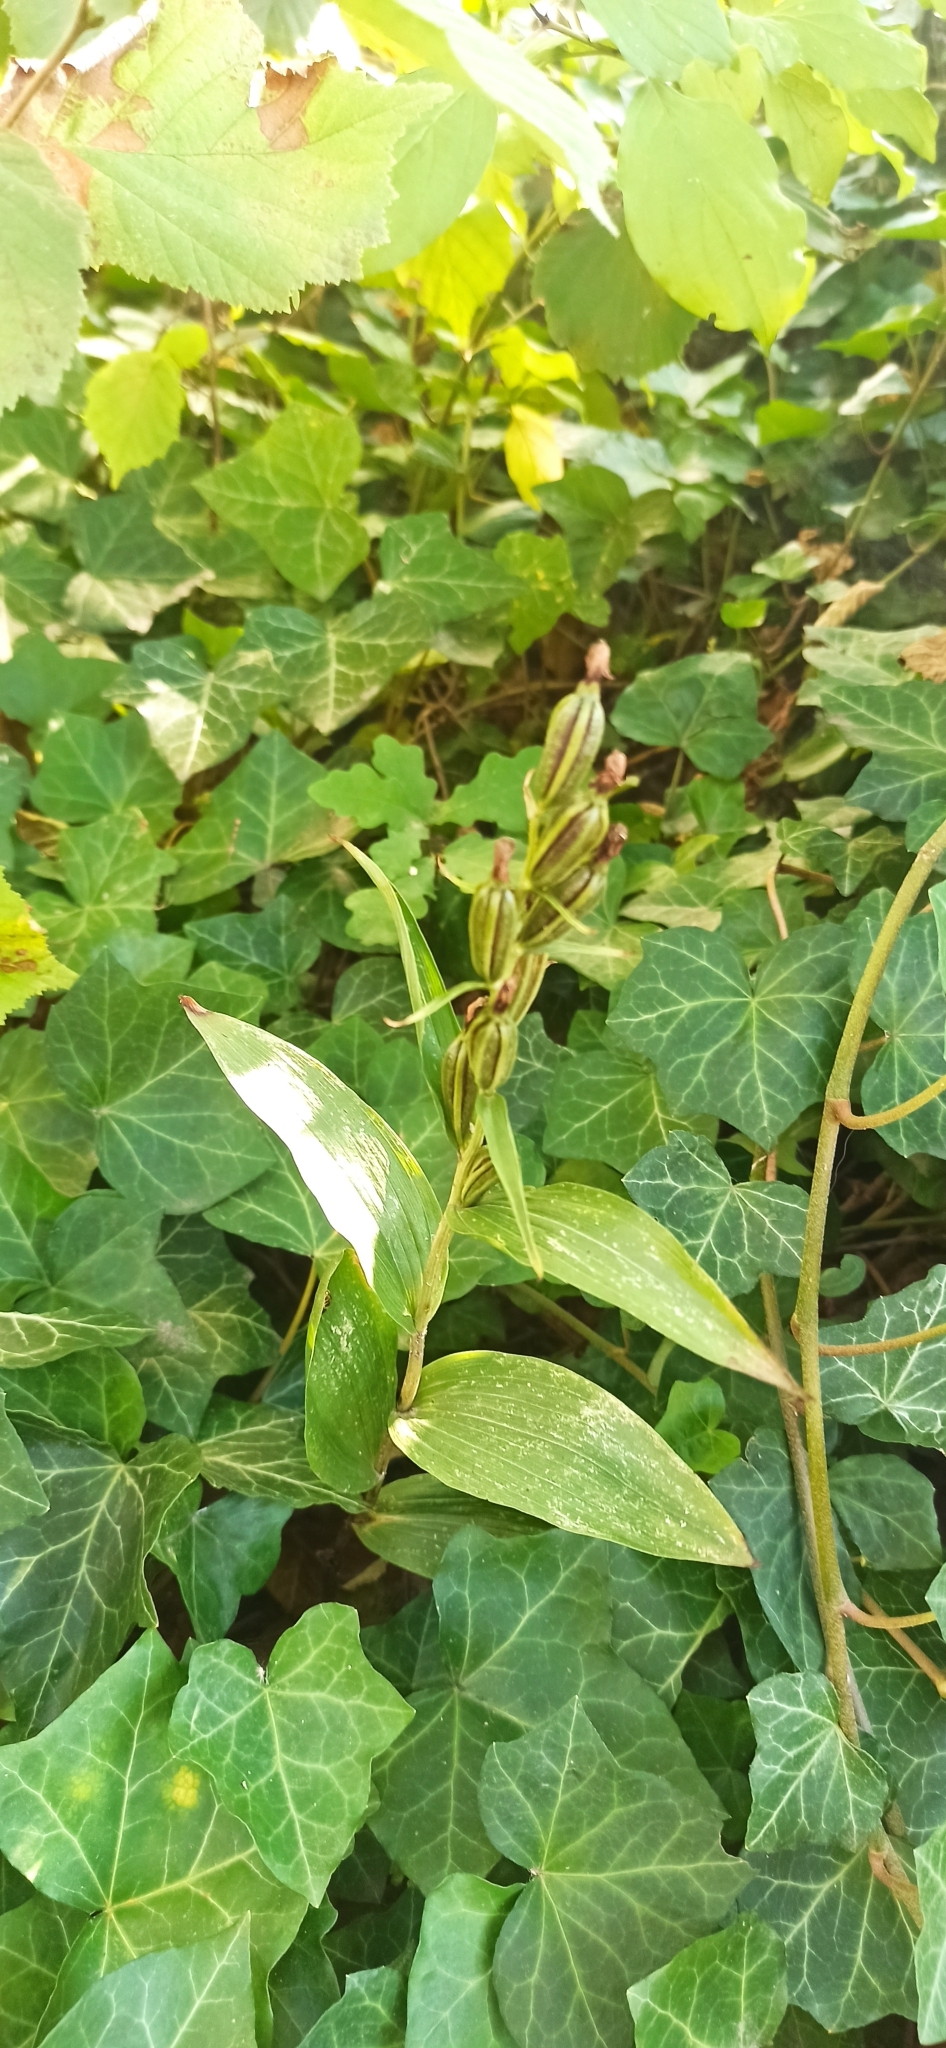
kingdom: Plantae
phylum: Tracheophyta
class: Liliopsida
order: Asparagales
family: Orchidaceae
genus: Cephalanthera
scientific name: Cephalanthera damasonium
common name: White helleborine
